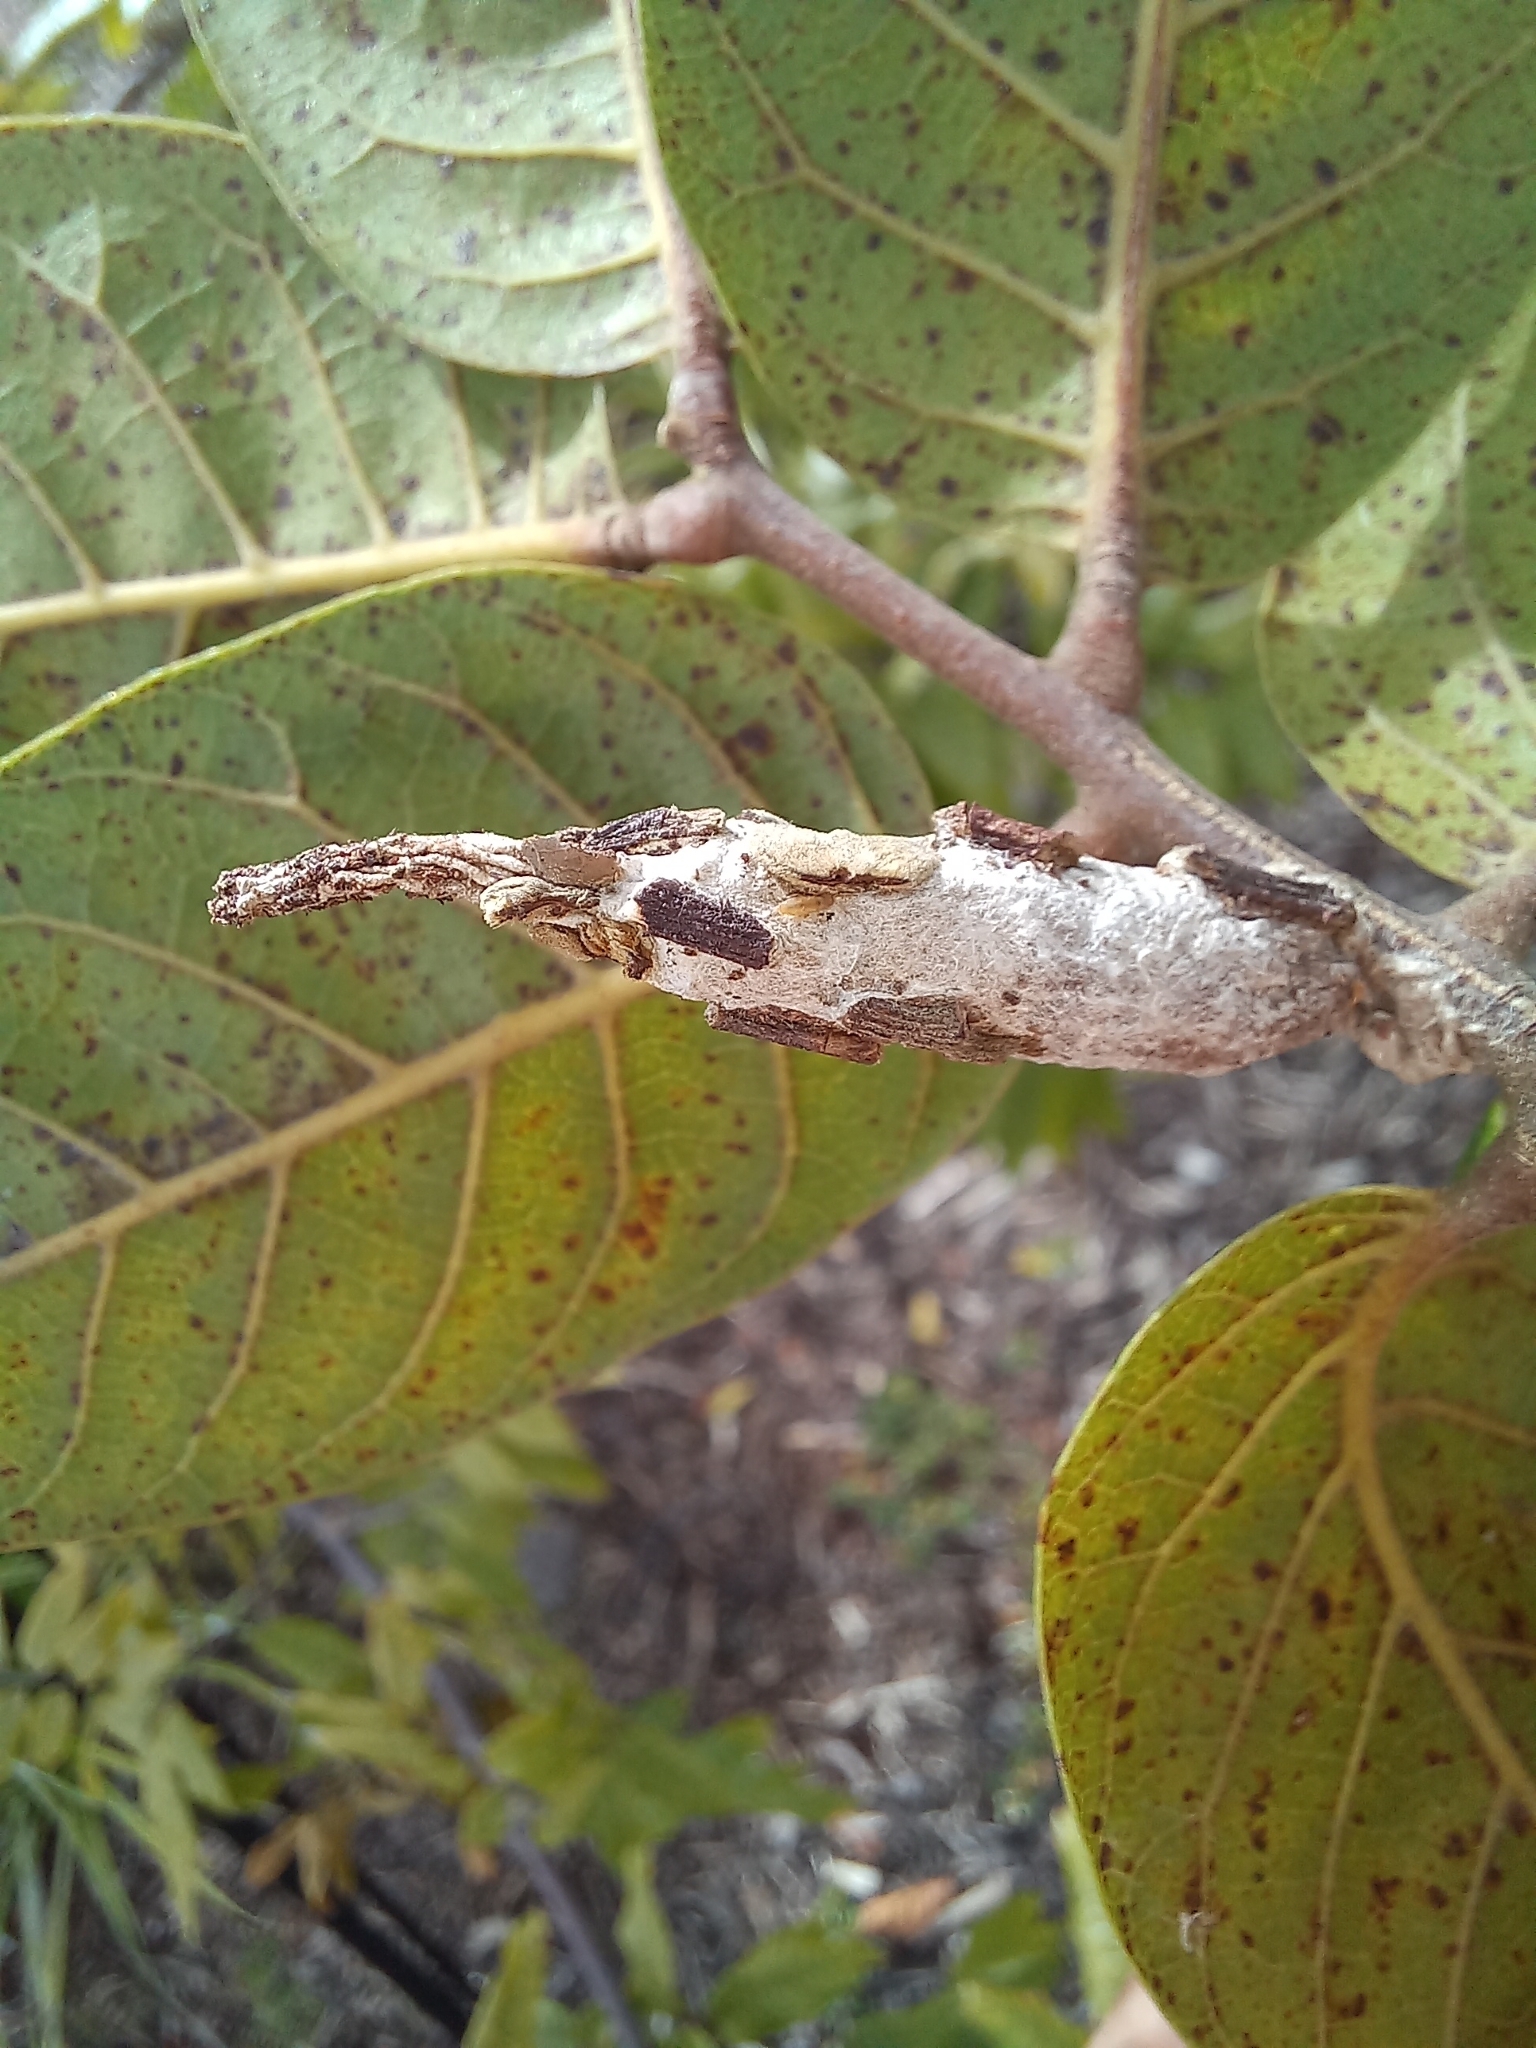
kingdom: Animalia
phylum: Arthropoda
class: Insecta
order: Lepidoptera
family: Psychidae
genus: Liothula
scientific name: Liothula omnivora
